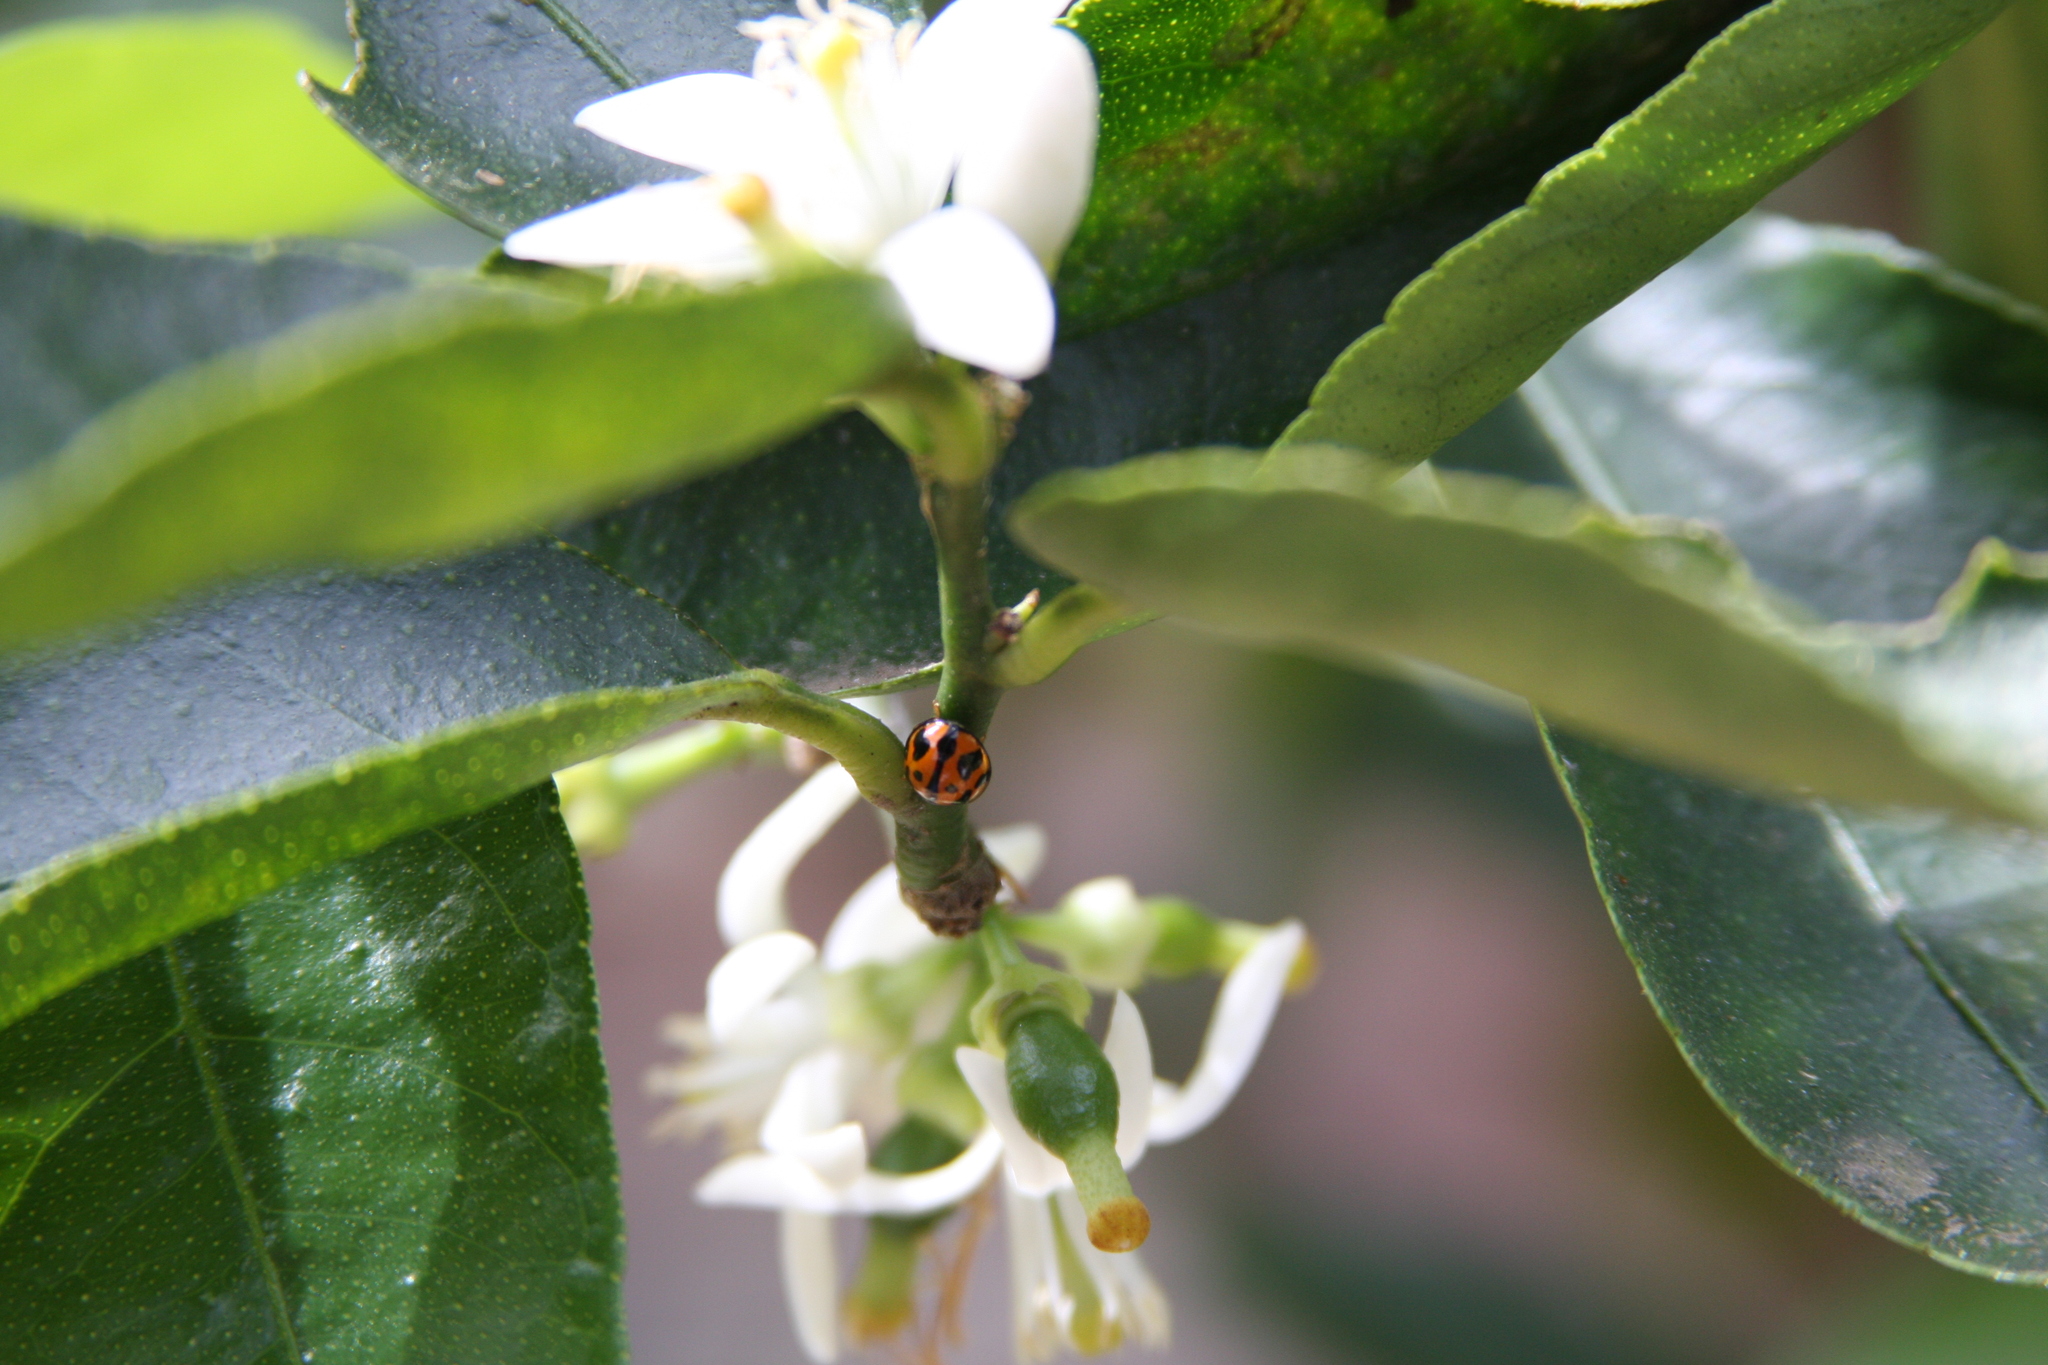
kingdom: Animalia
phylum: Arthropoda
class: Insecta
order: Coleoptera
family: Coccinellidae
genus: Coelophora
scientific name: Coelophora inaequalis
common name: Common australian lady beetle
